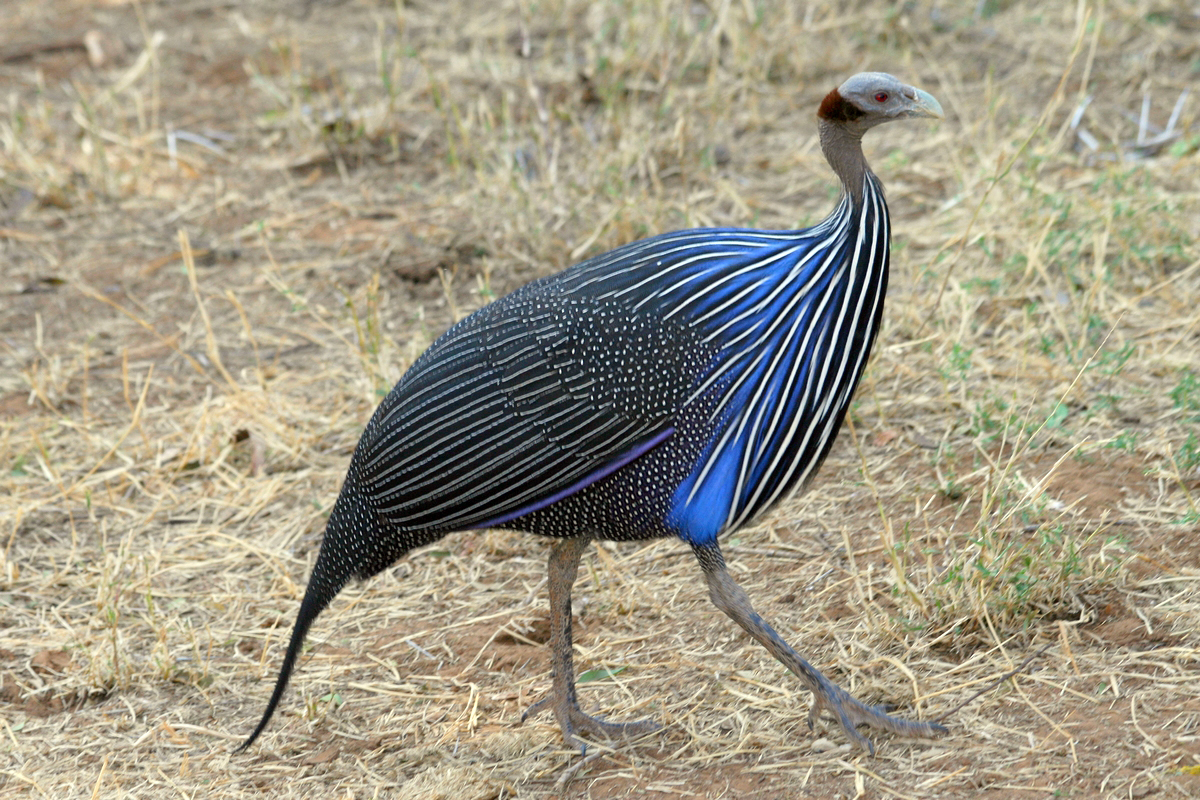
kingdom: Animalia
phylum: Chordata
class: Aves
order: Galliformes
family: Numididae
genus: Acryllium
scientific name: Acryllium vulturinum
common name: Vulturine guineafowl
